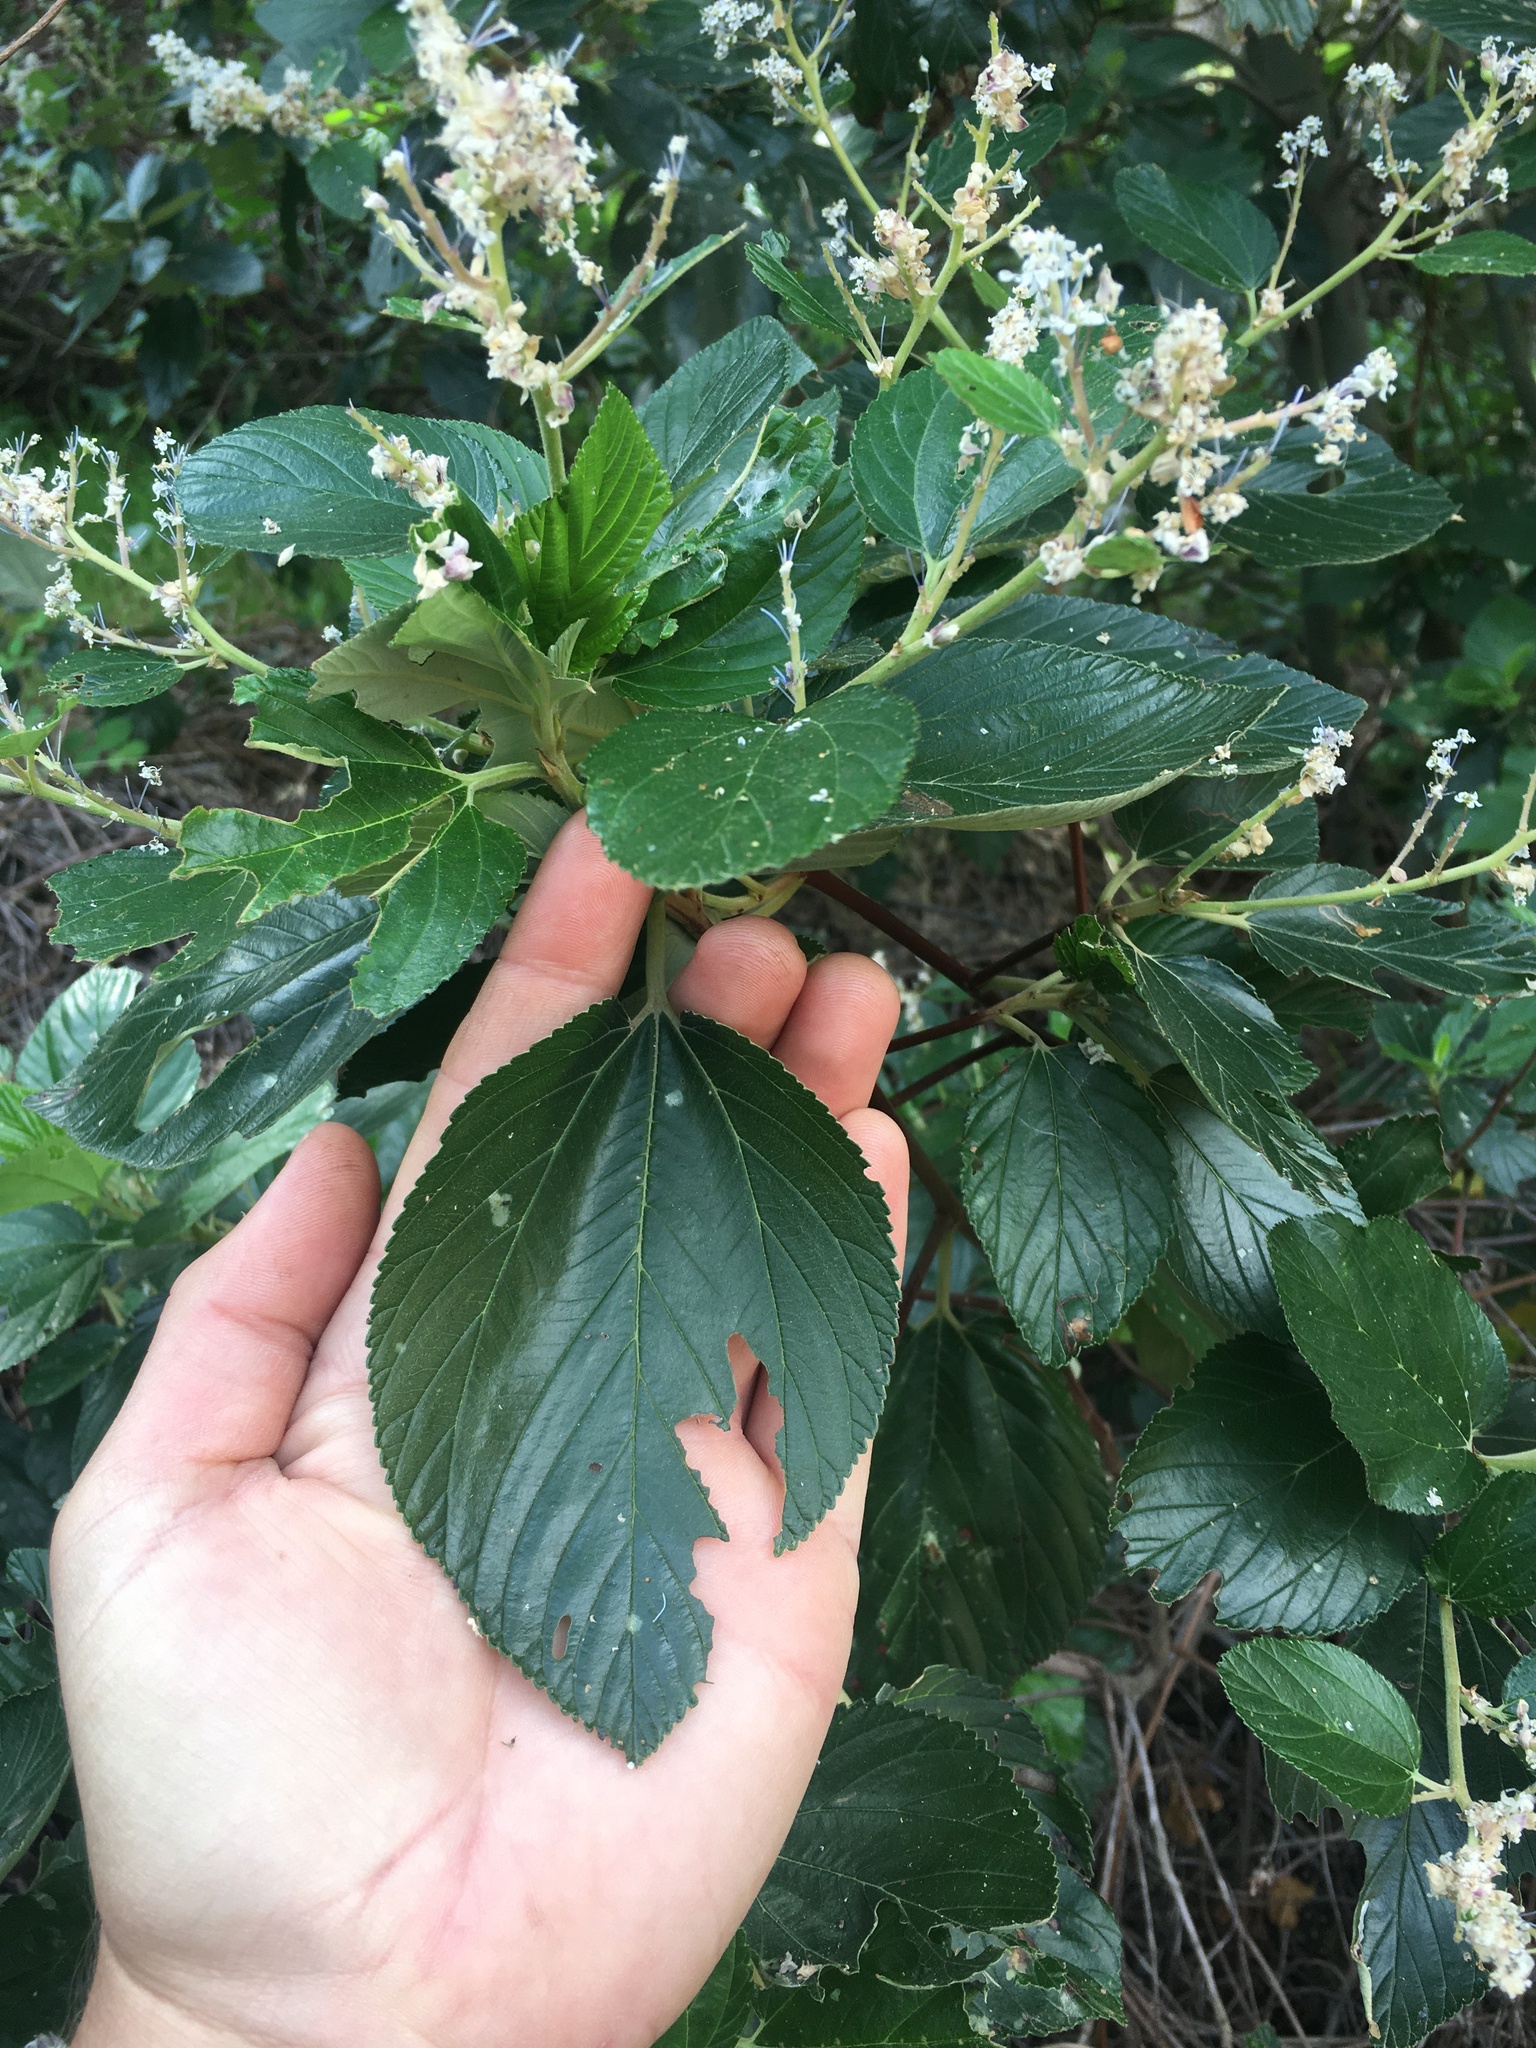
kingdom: Plantae
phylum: Tracheophyta
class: Magnoliopsida
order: Rosales
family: Rhamnaceae
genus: Ceanothus
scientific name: Ceanothus arboreus
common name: Catalina mountain-lilac
